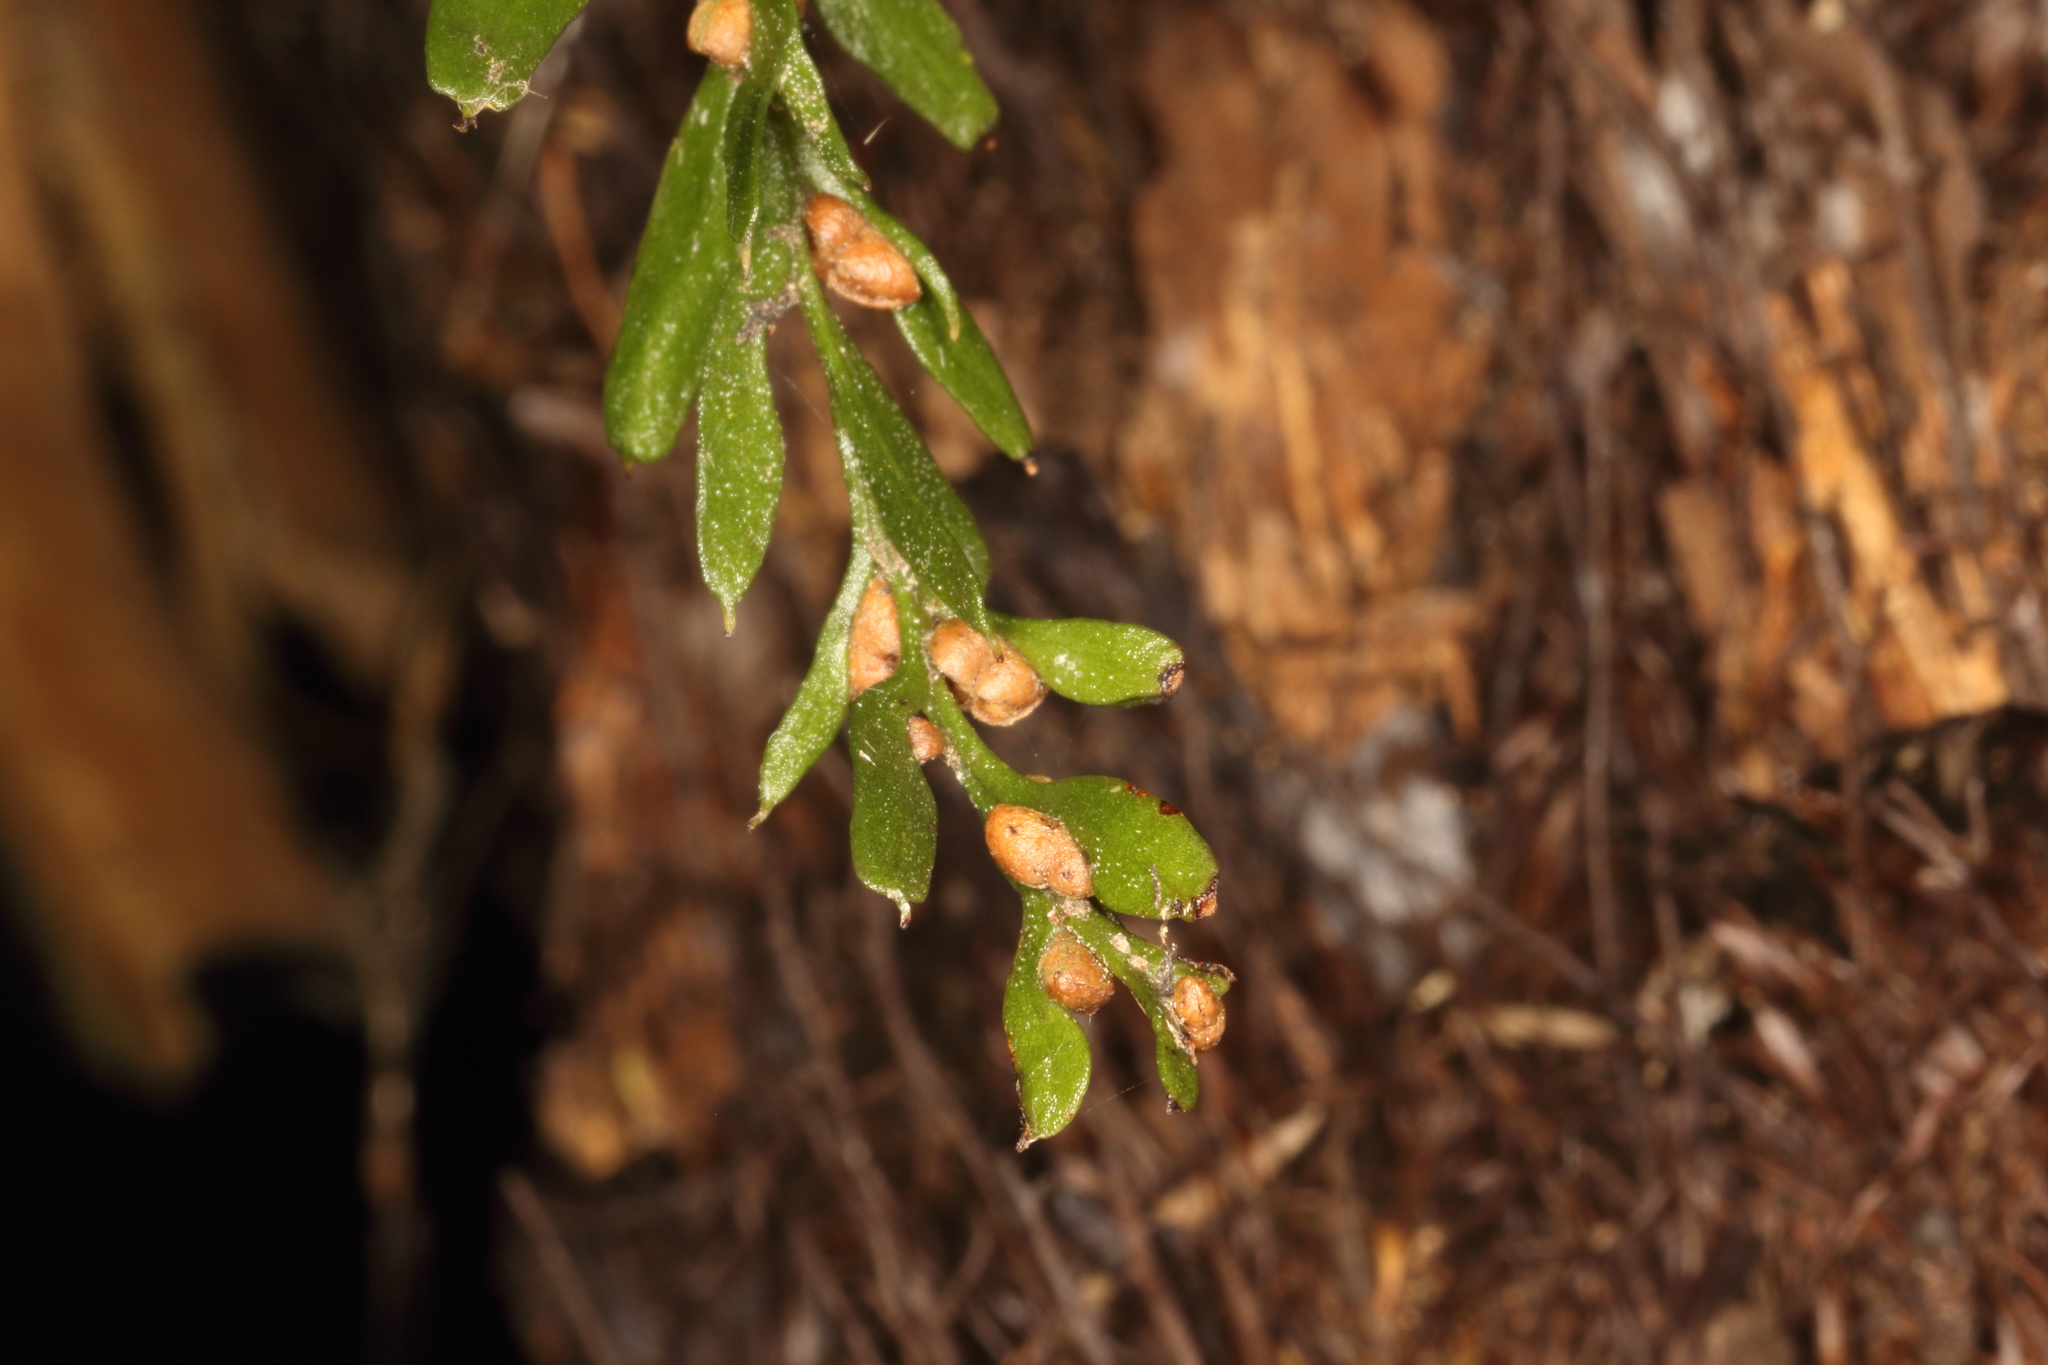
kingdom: Plantae
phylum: Tracheophyta
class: Polypodiopsida
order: Psilotales
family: Psilotaceae
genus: Tmesipteris
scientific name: Tmesipteris horomaka
